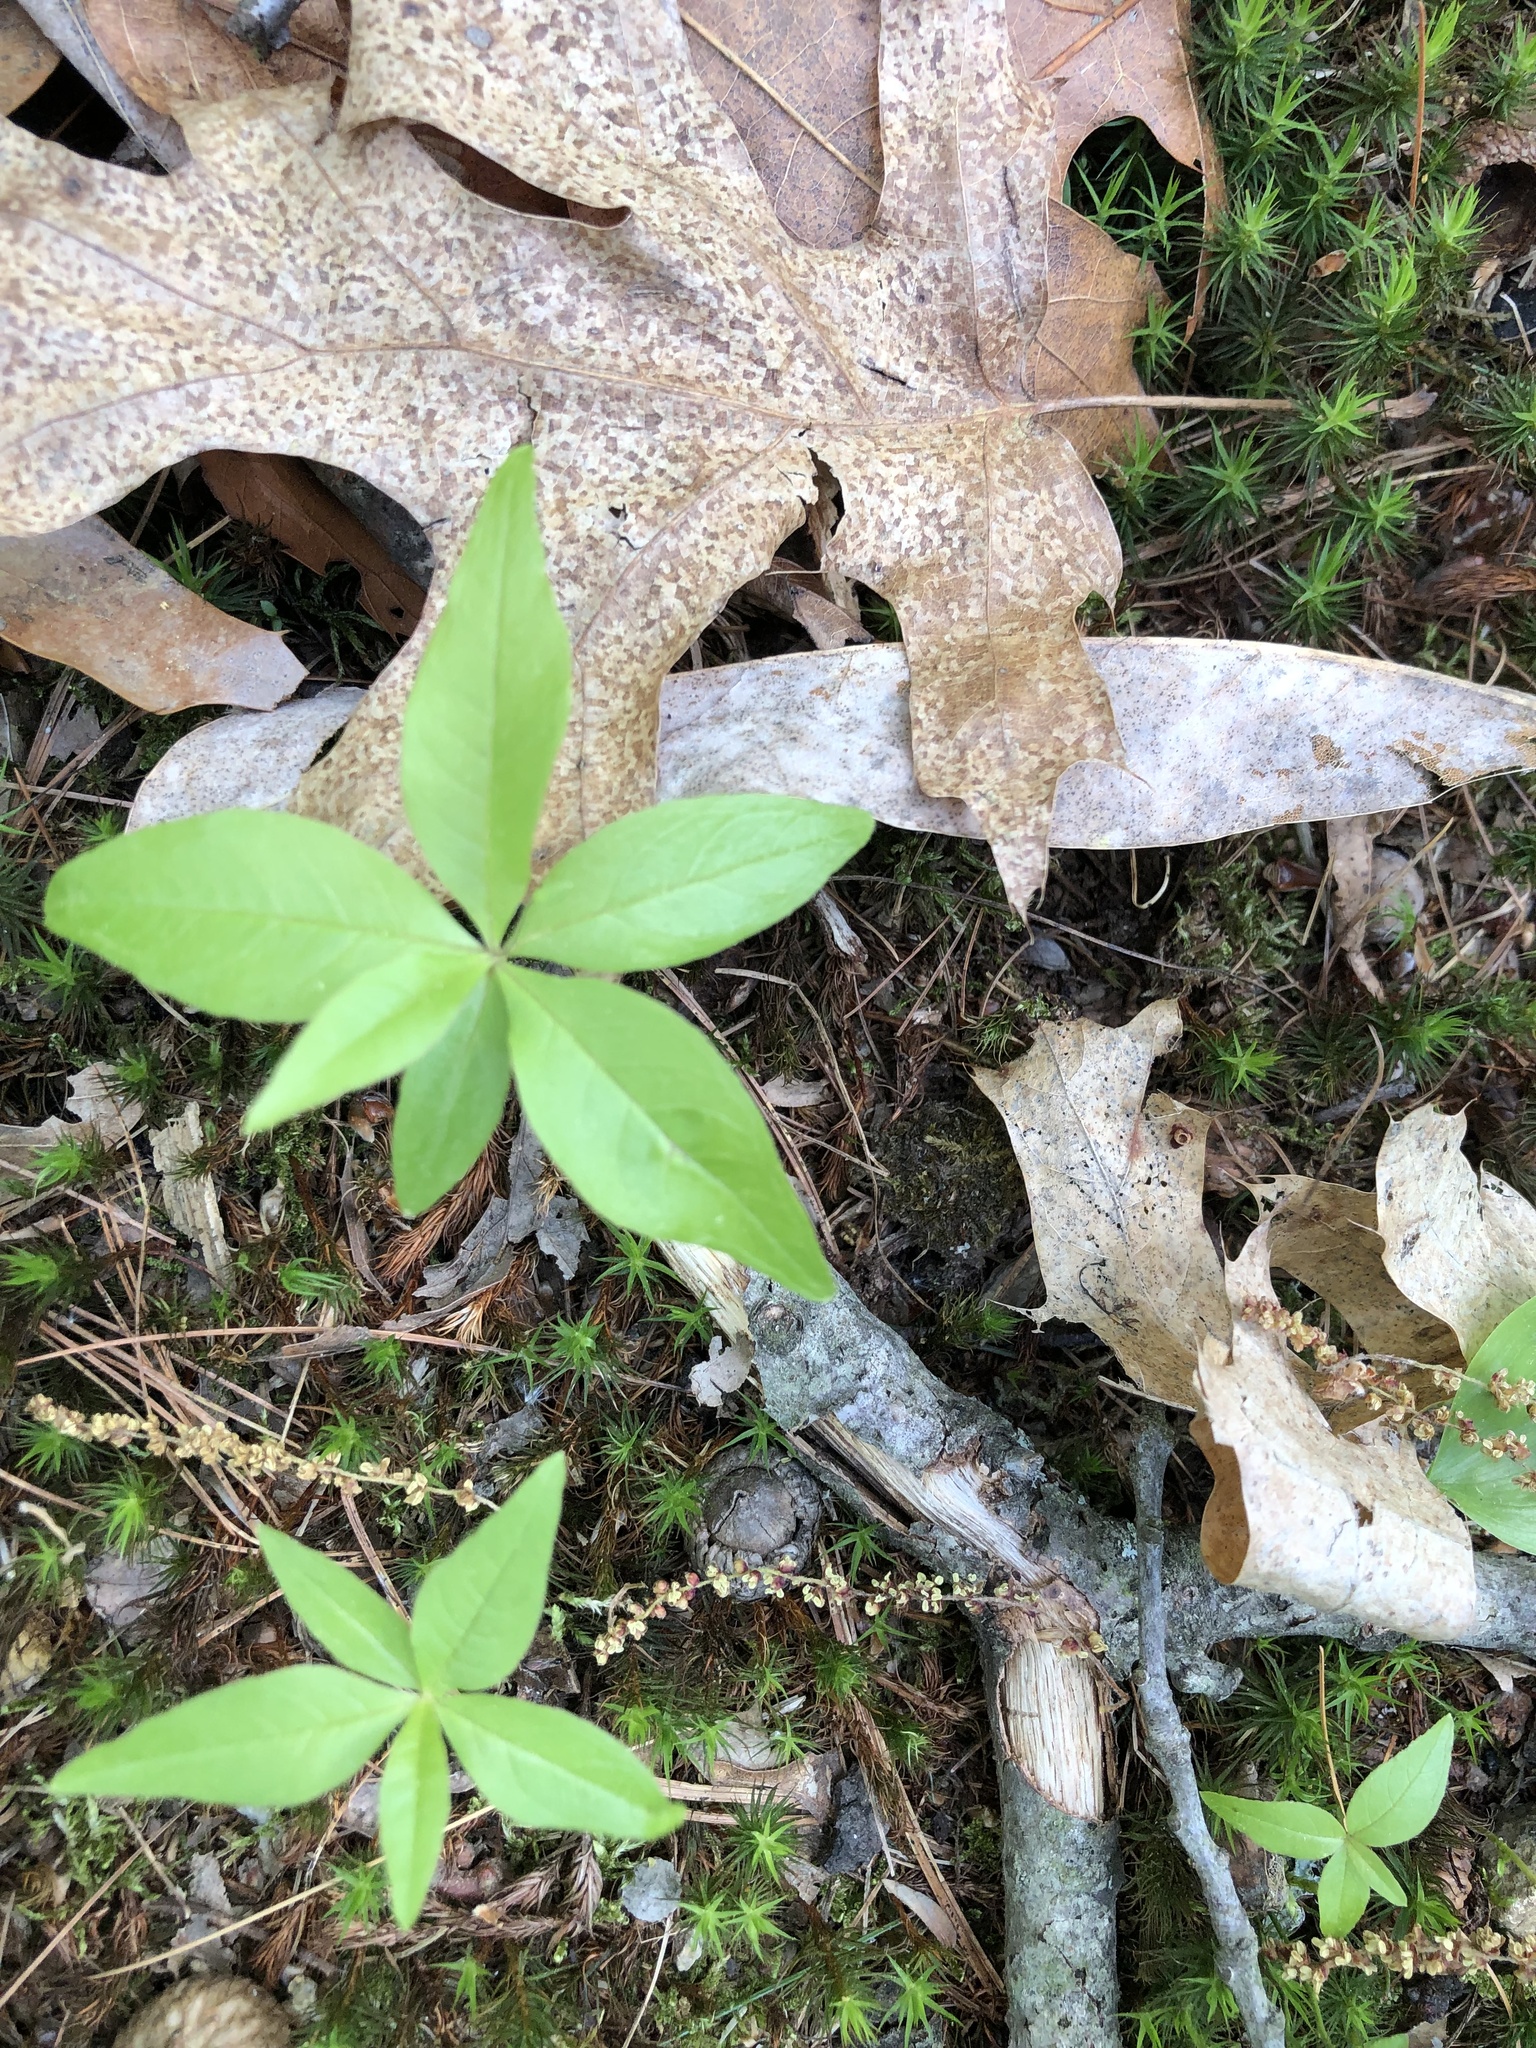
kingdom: Plantae
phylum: Tracheophyta
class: Magnoliopsida
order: Ericales
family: Primulaceae
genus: Lysimachia
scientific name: Lysimachia borealis
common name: American starflower
